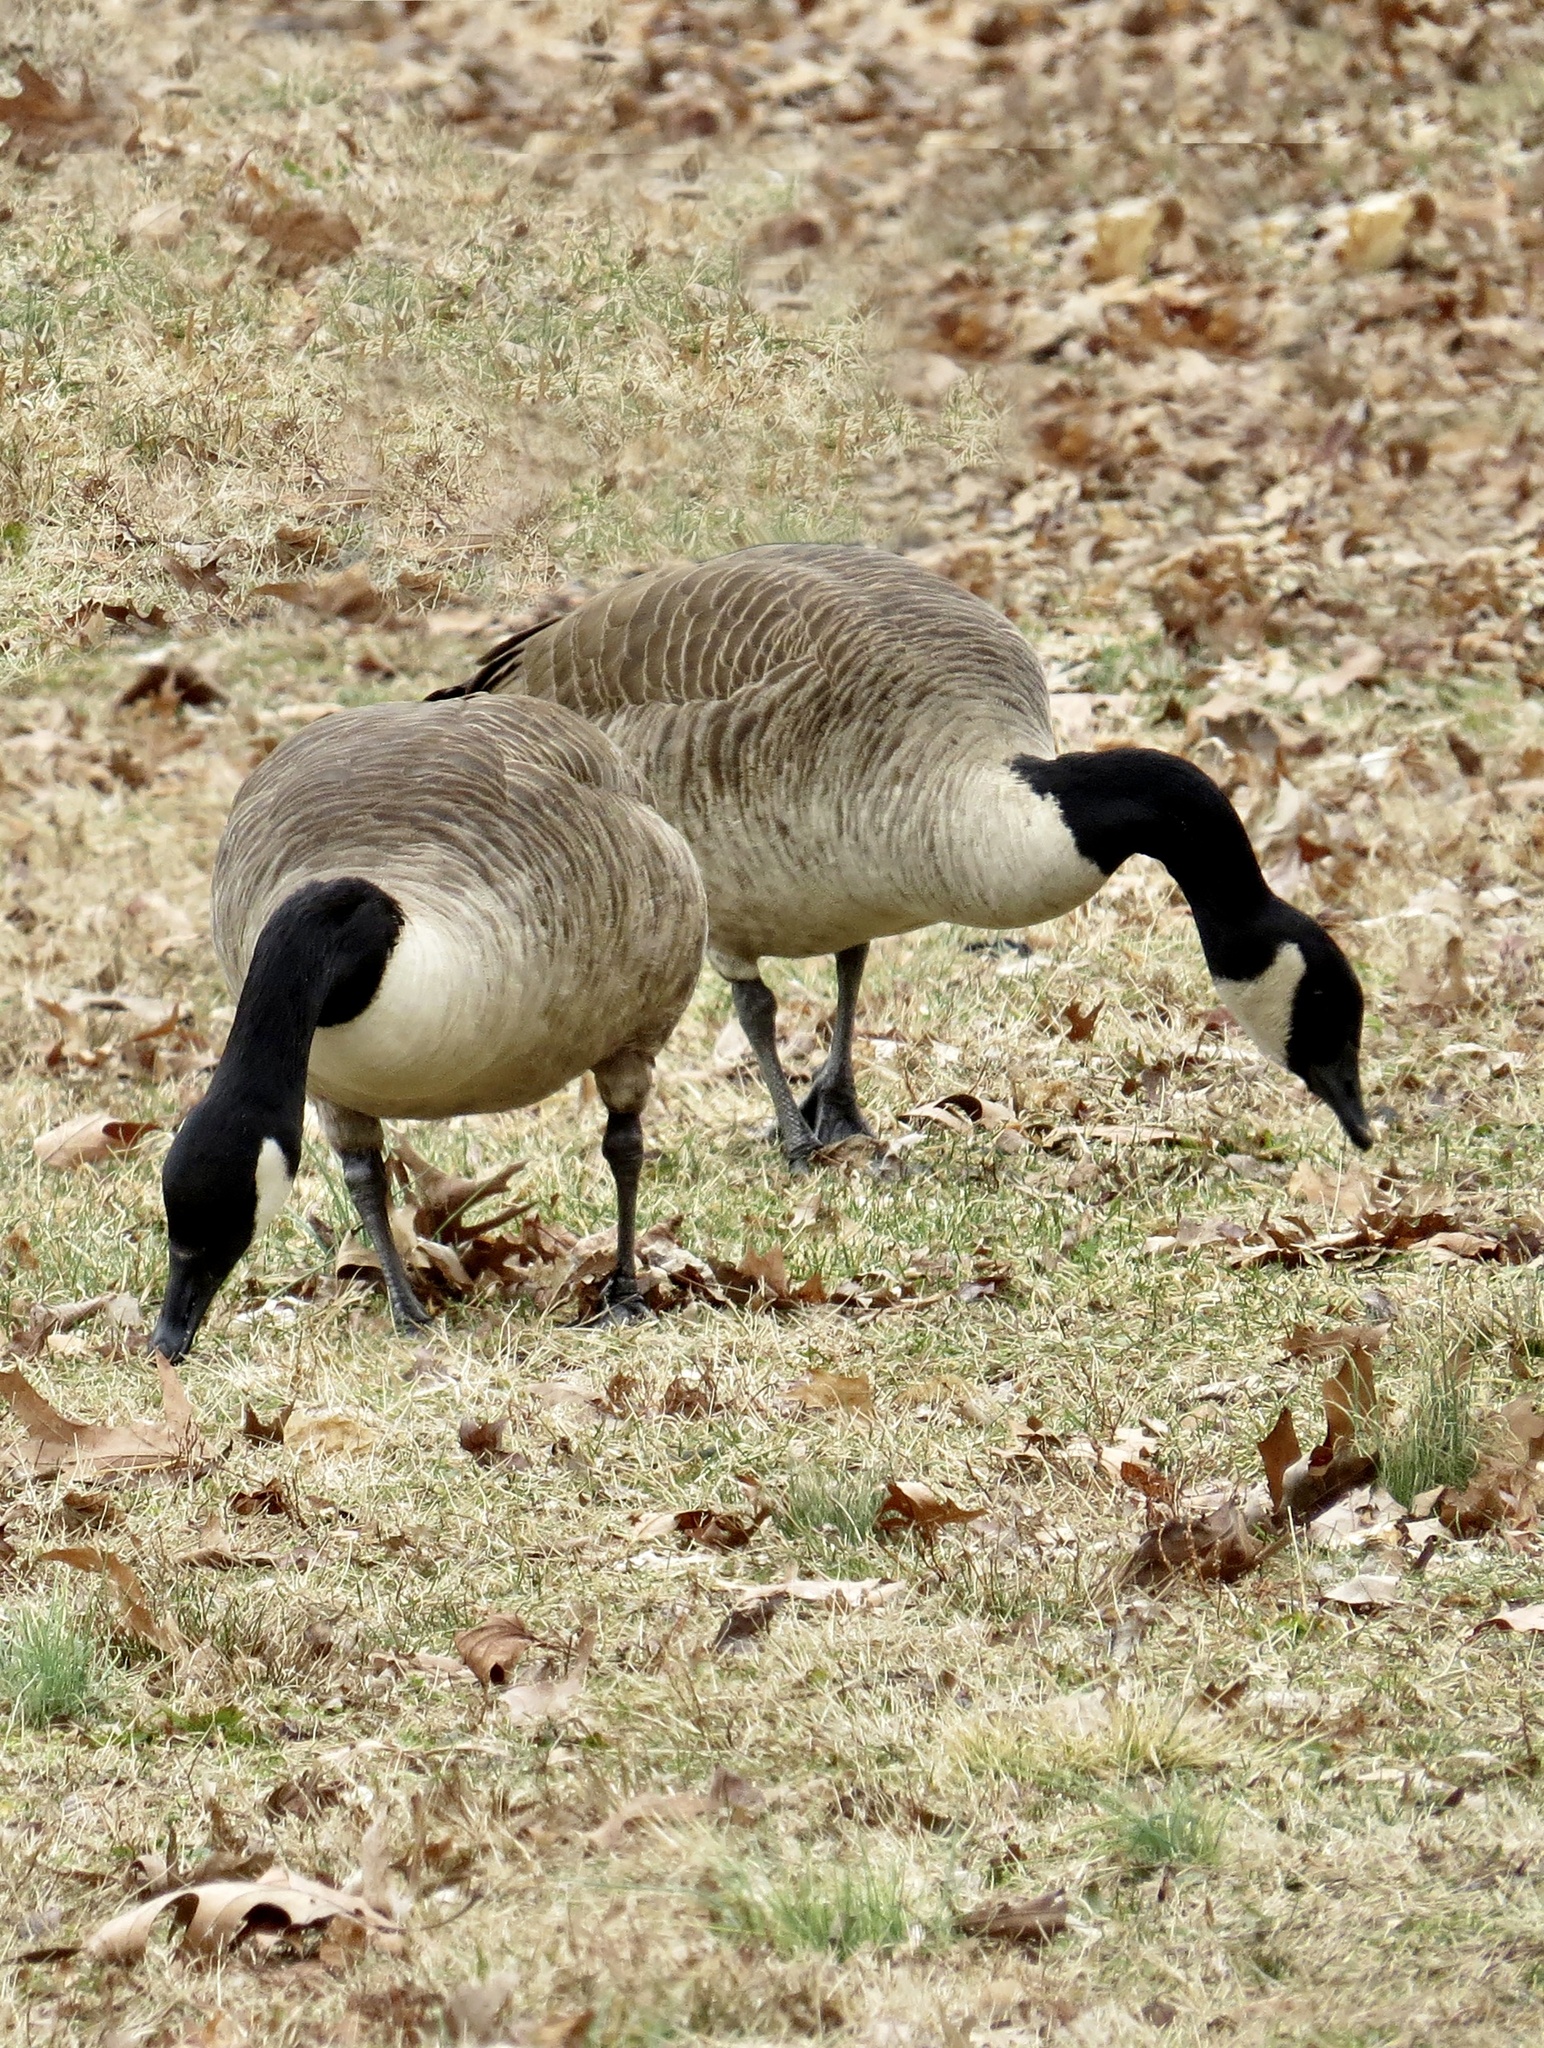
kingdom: Animalia
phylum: Chordata
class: Aves
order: Anseriformes
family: Anatidae
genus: Branta
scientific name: Branta canadensis
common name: Canada goose
